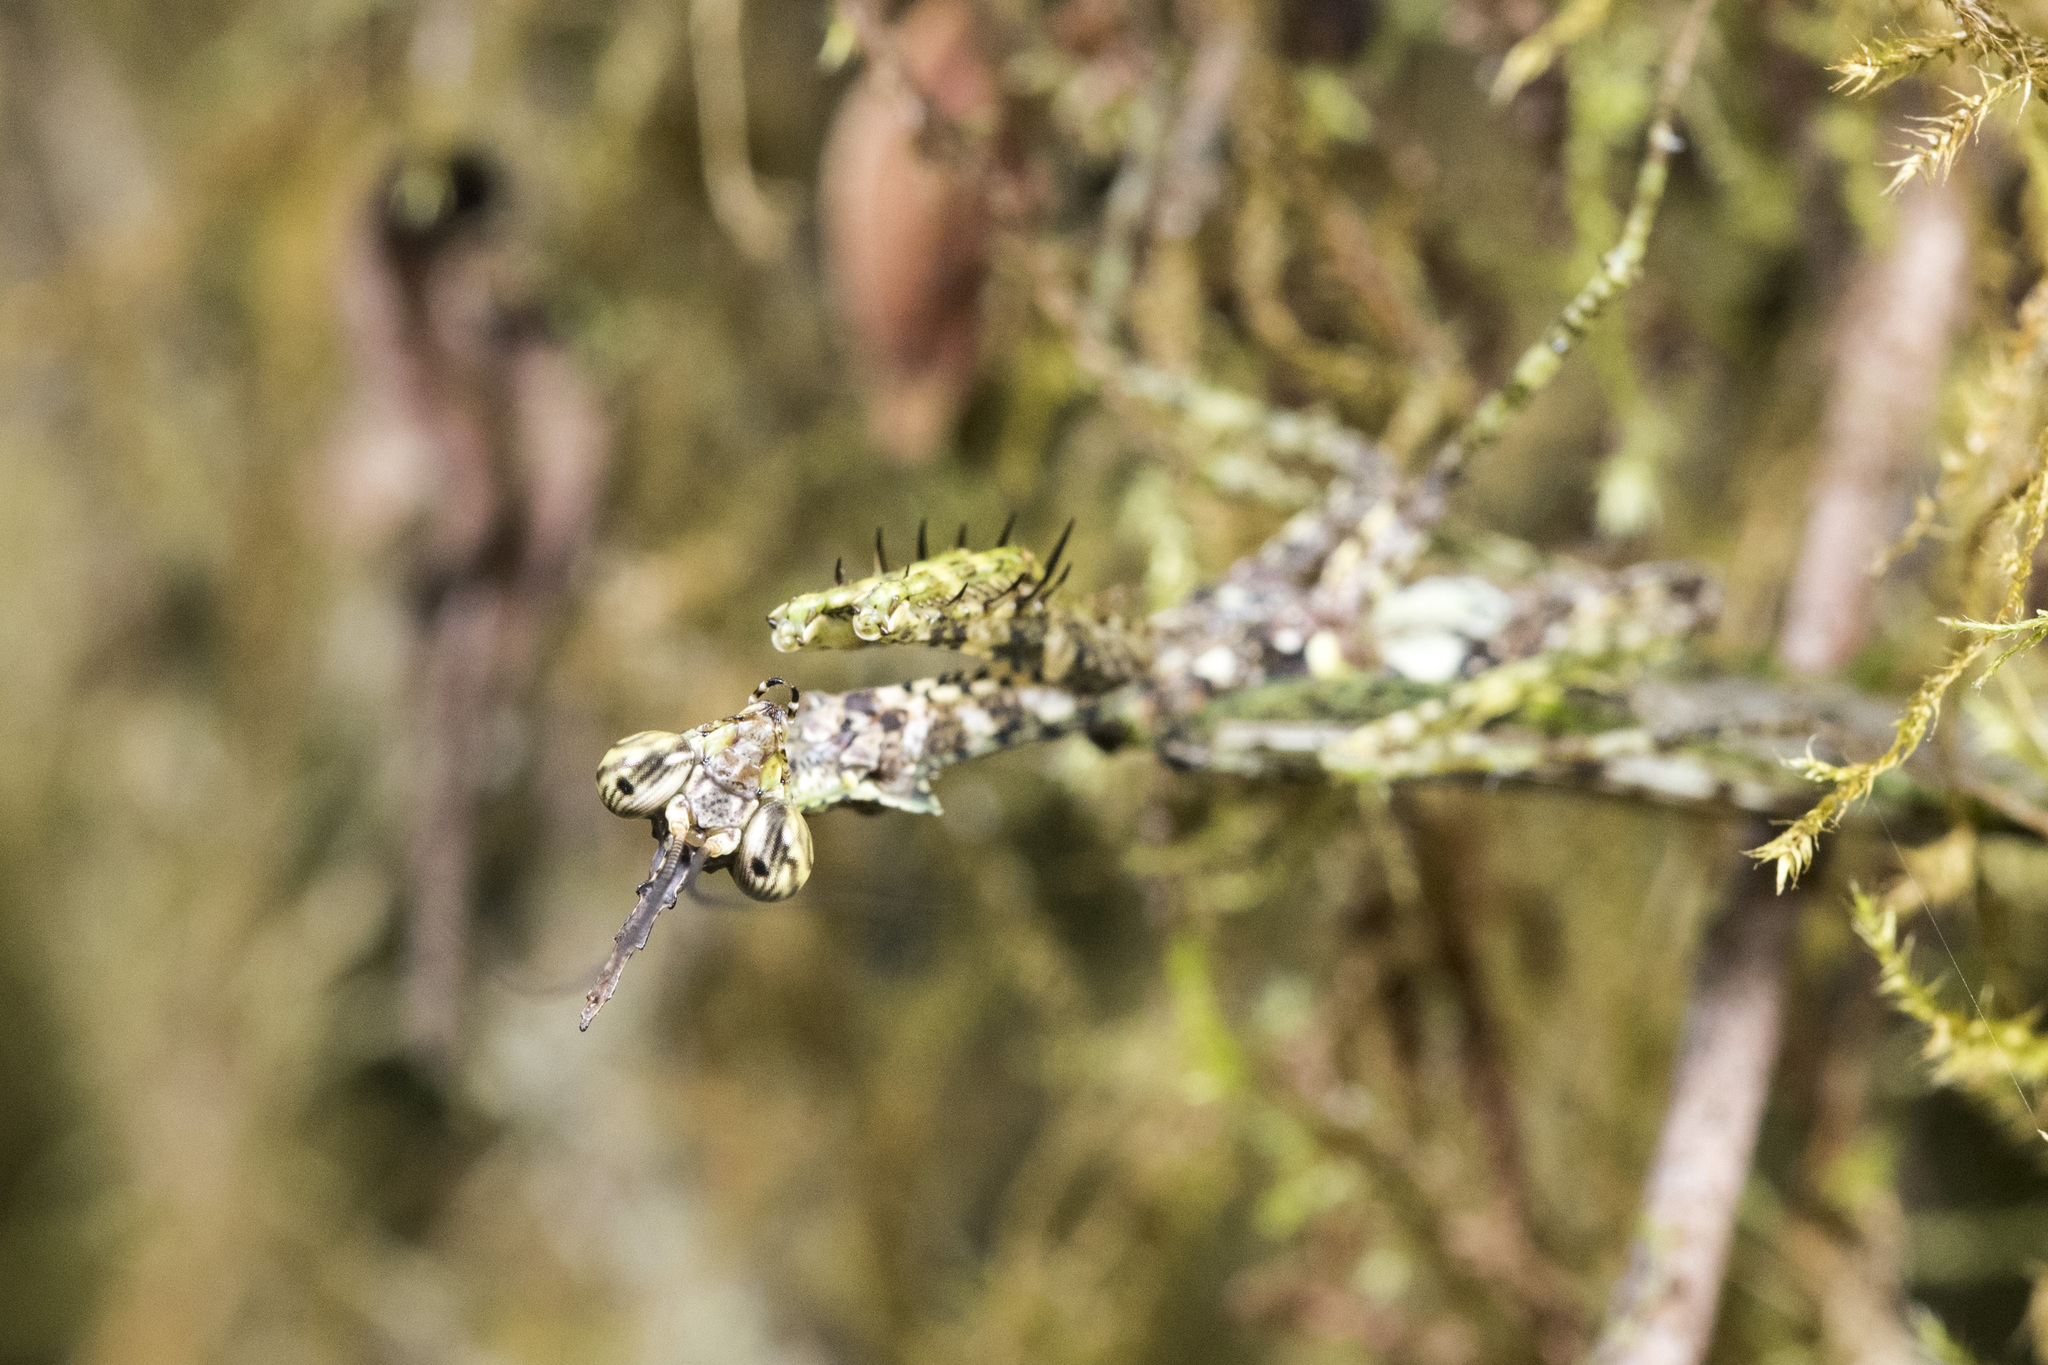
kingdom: Animalia
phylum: Arthropoda
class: Insecta
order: Mantodea
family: Hymenopodidae
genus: Phyllothelys
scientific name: Phyllothelys cornutus
